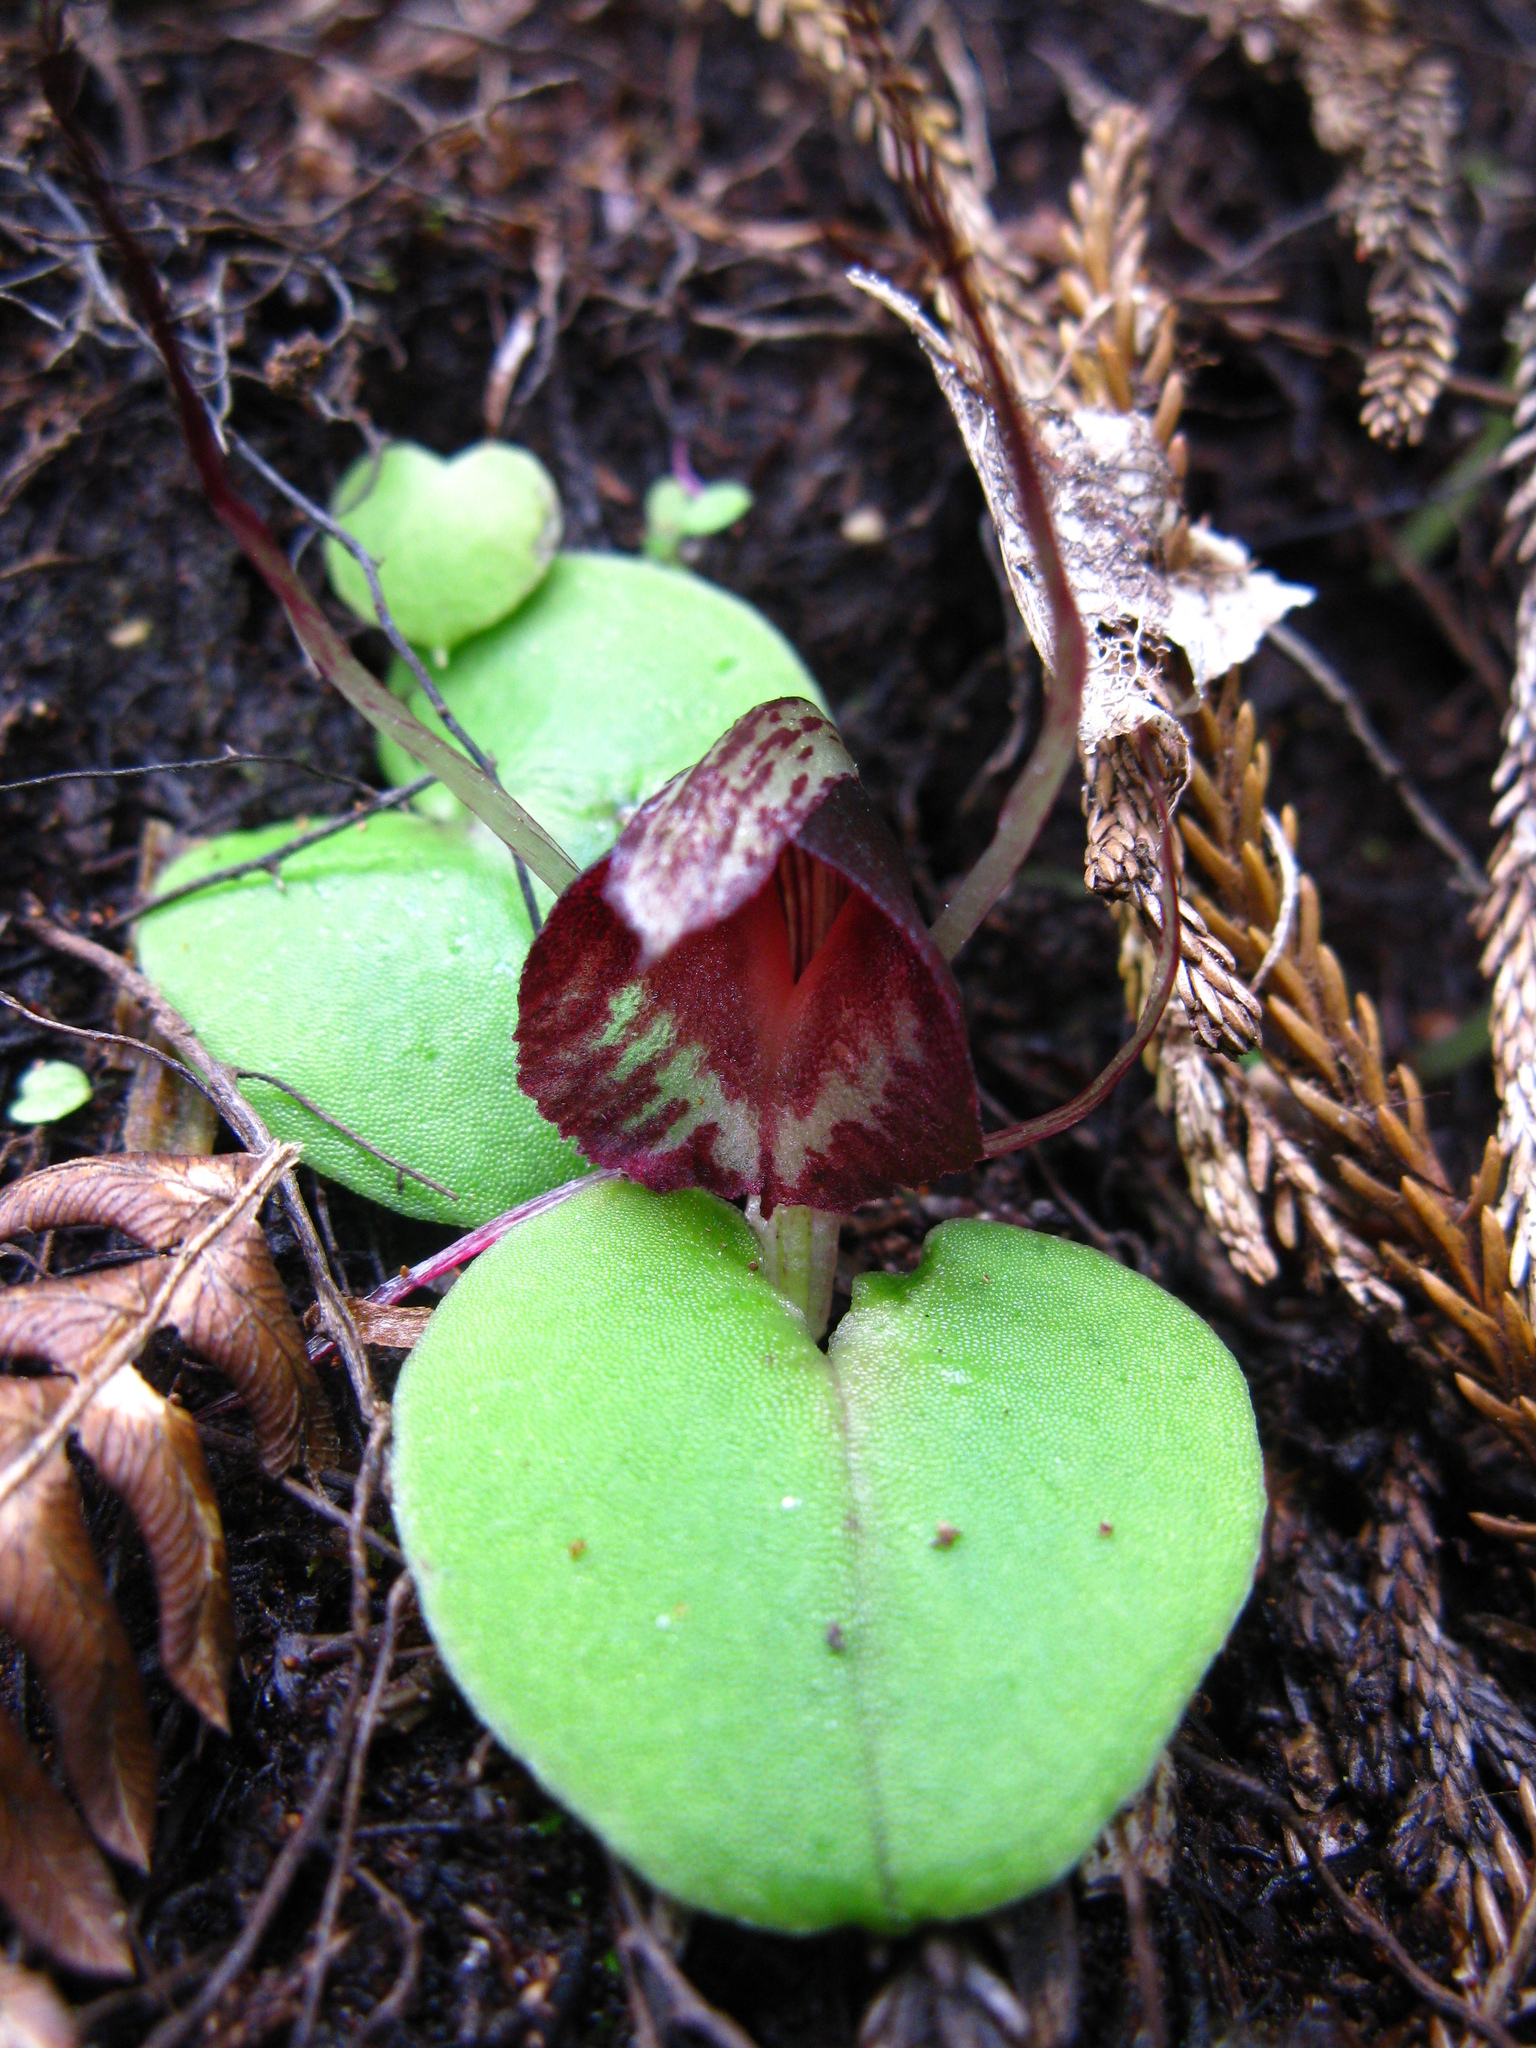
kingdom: Plantae
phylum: Tracheophyta
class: Liliopsida
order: Asparagales
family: Orchidaceae
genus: Corybas
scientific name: Corybas macranthus
